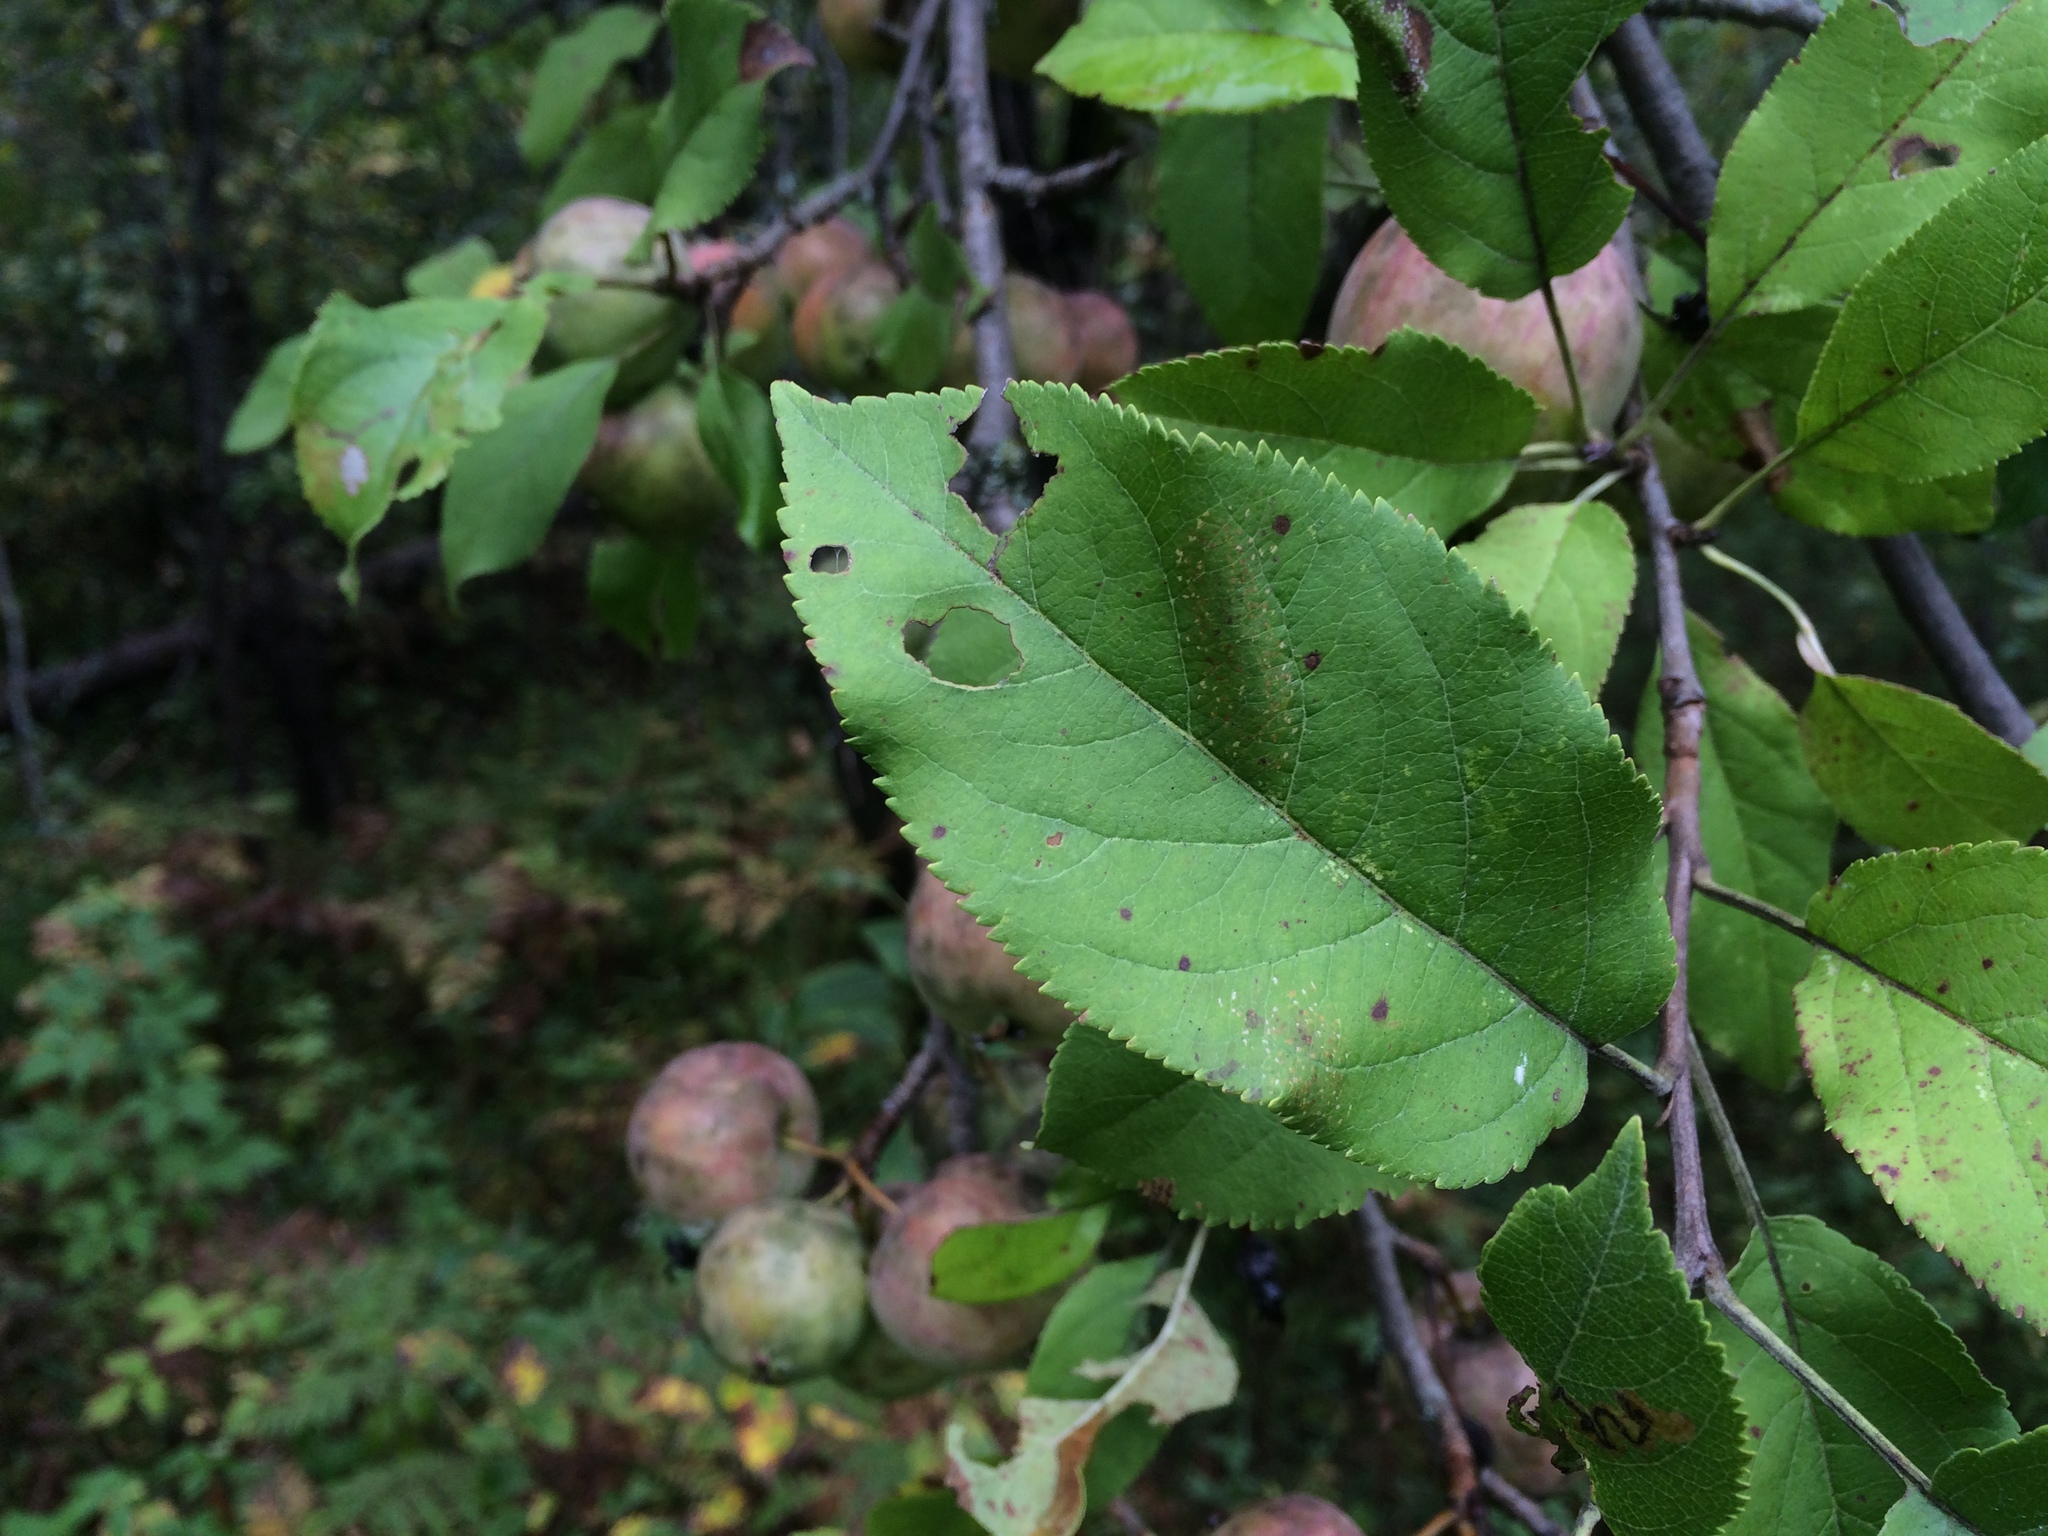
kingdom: Plantae
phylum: Tracheophyta
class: Magnoliopsida
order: Rosales
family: Rosaceae
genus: Malus
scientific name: Malus domestica
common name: Apple
